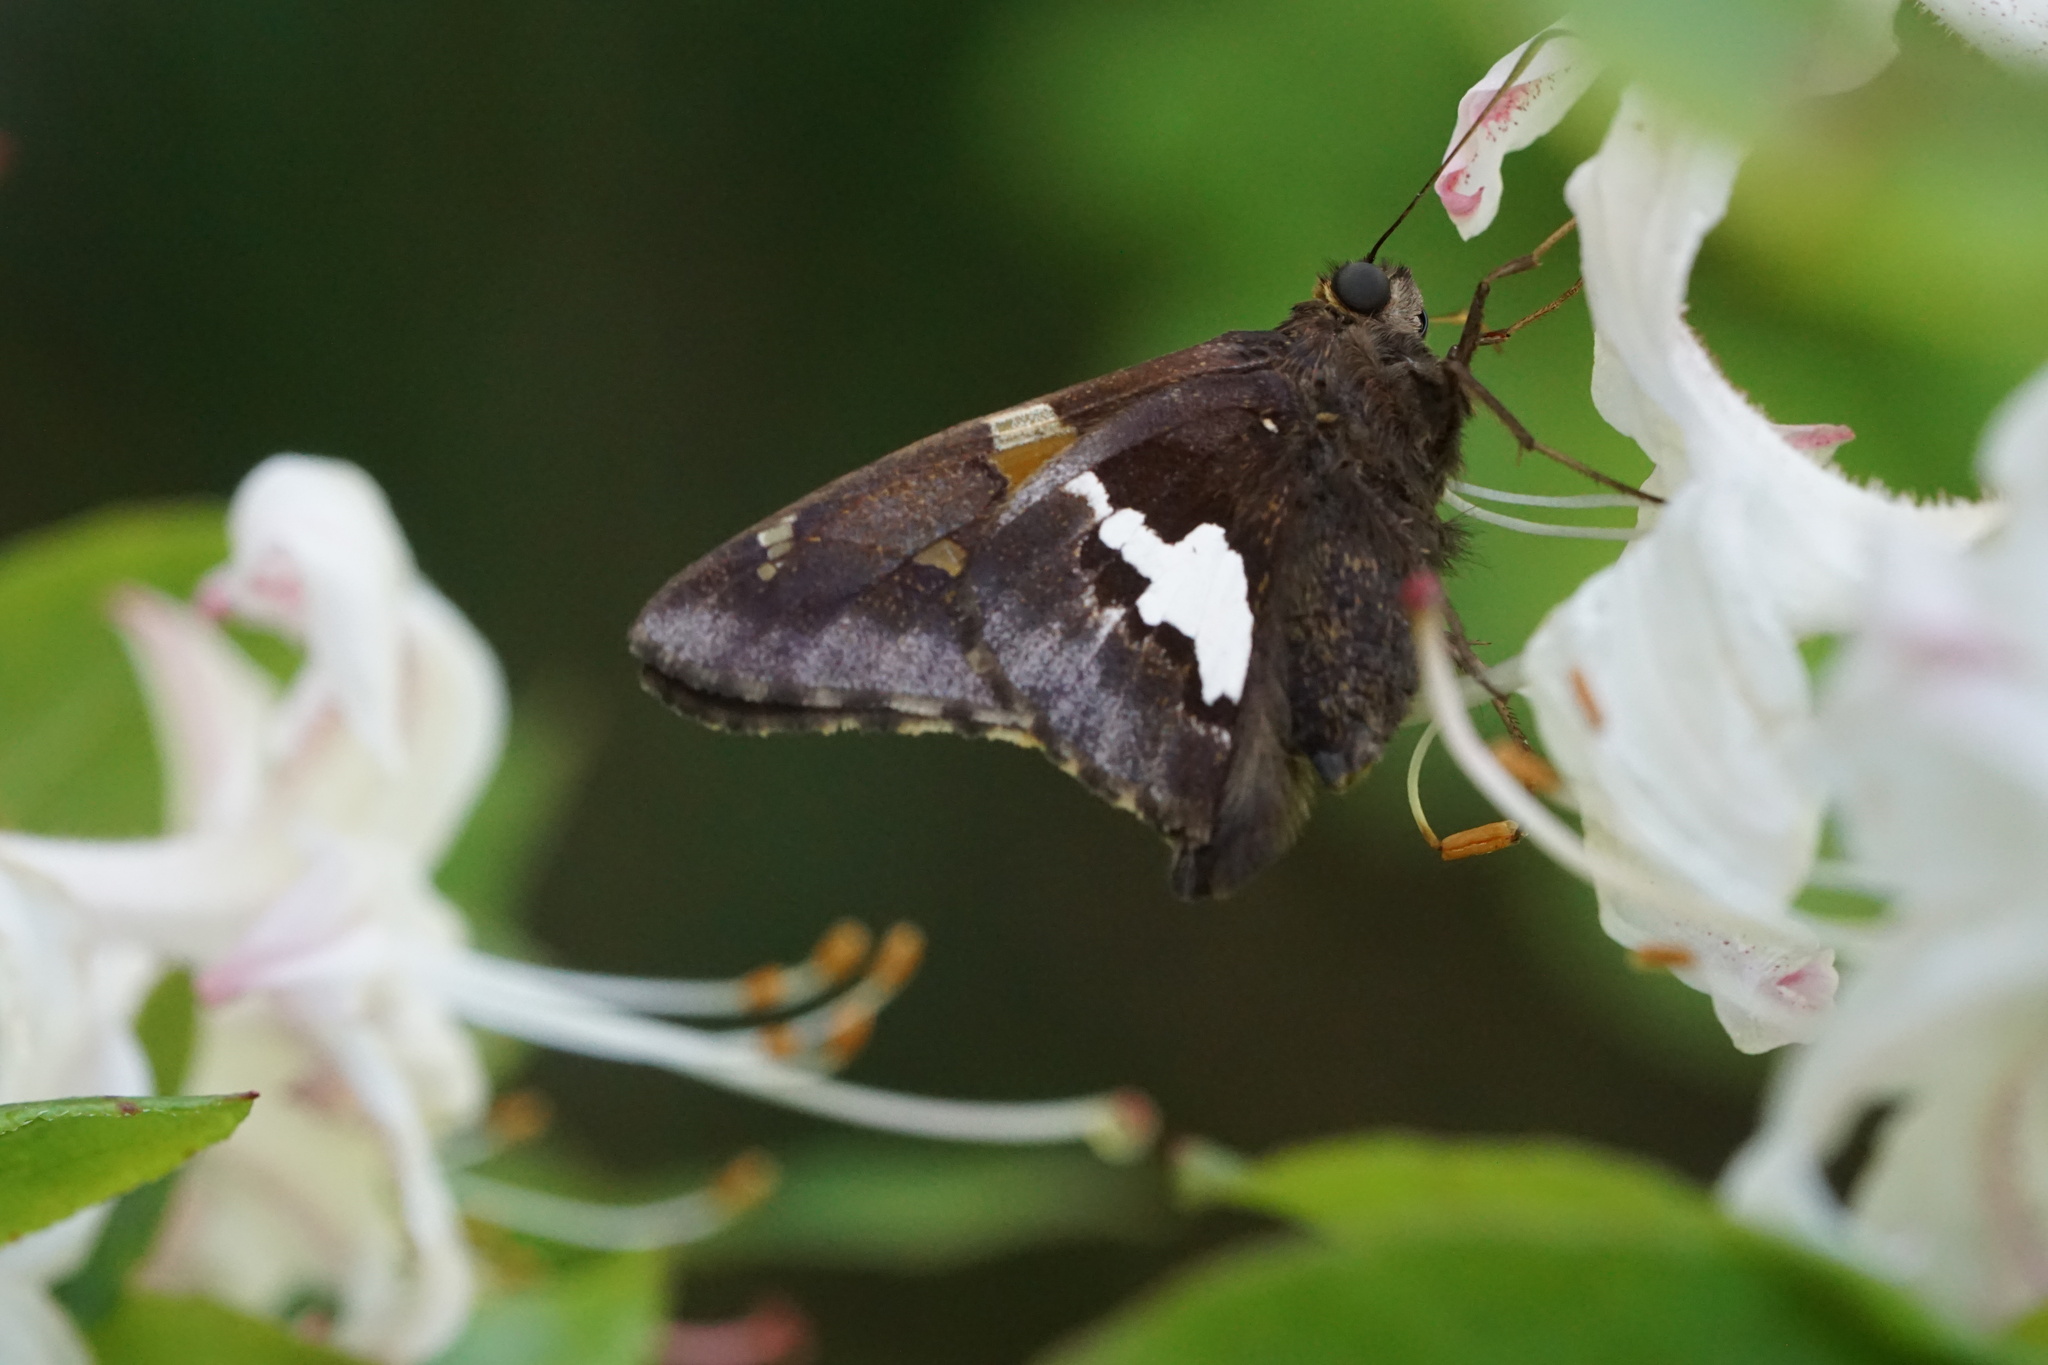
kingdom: Animalia
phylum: Arthropoda
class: Insecta
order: Lepidoptera
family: Hesperiidae
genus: Epargyreus
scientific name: Epargyreus clarus
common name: Silver-spotted skipper
